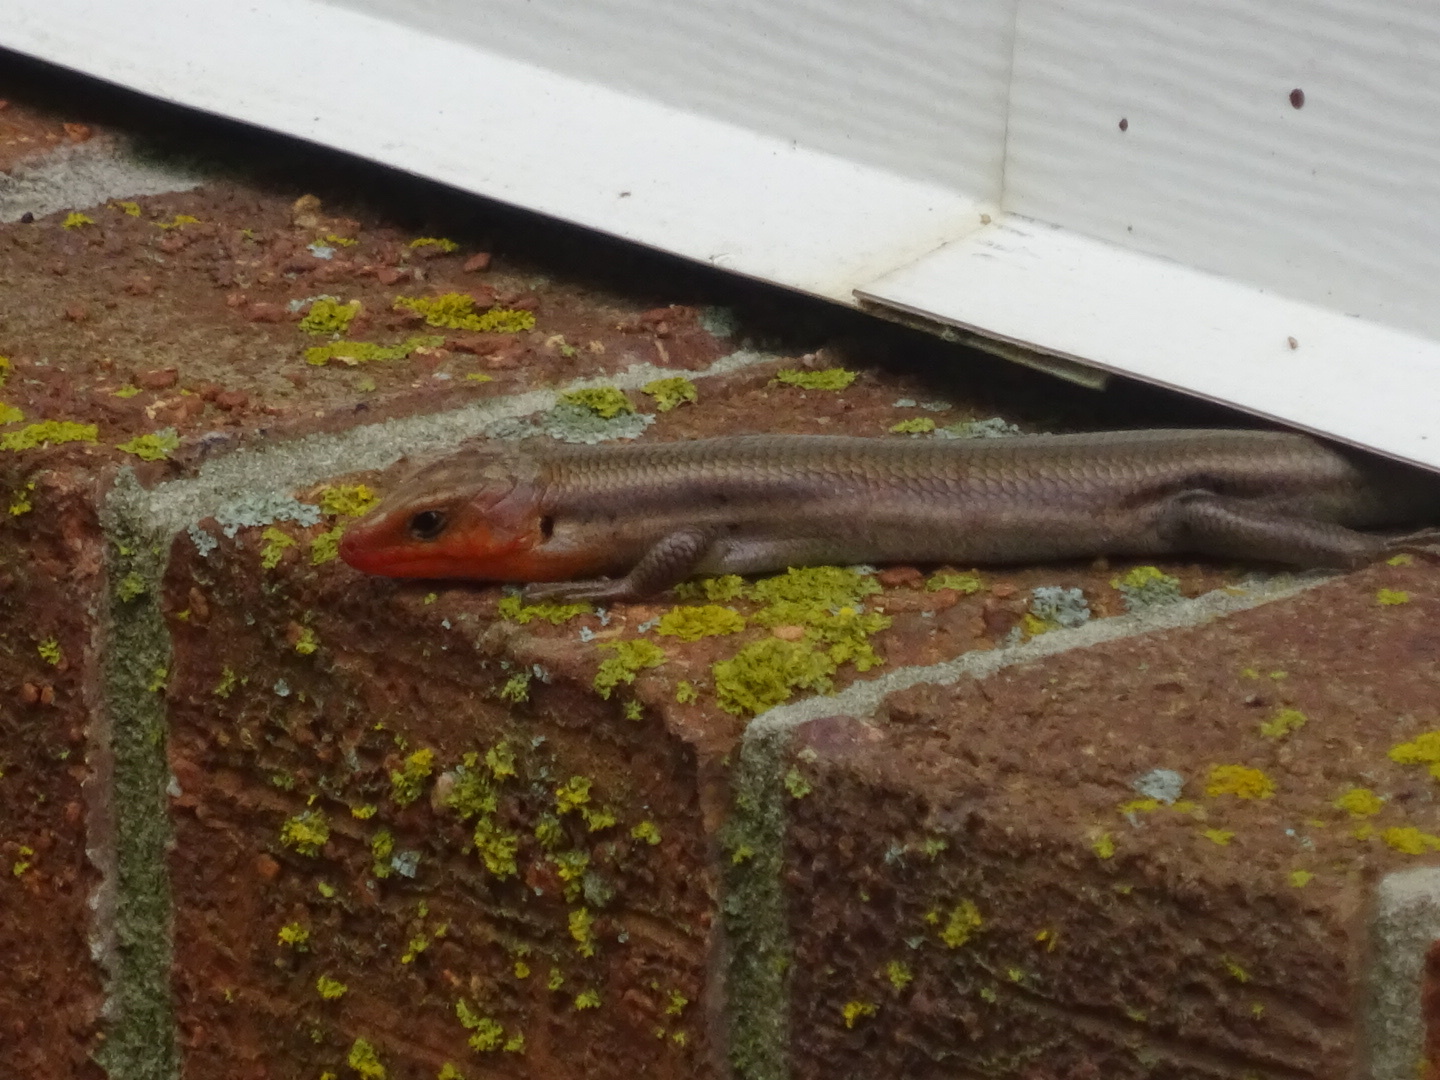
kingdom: Animalia
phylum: Chordata
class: Squamata
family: Scincidae
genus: Plestiodon
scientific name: Plestiodon fasciatus
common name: Five-lined skink
